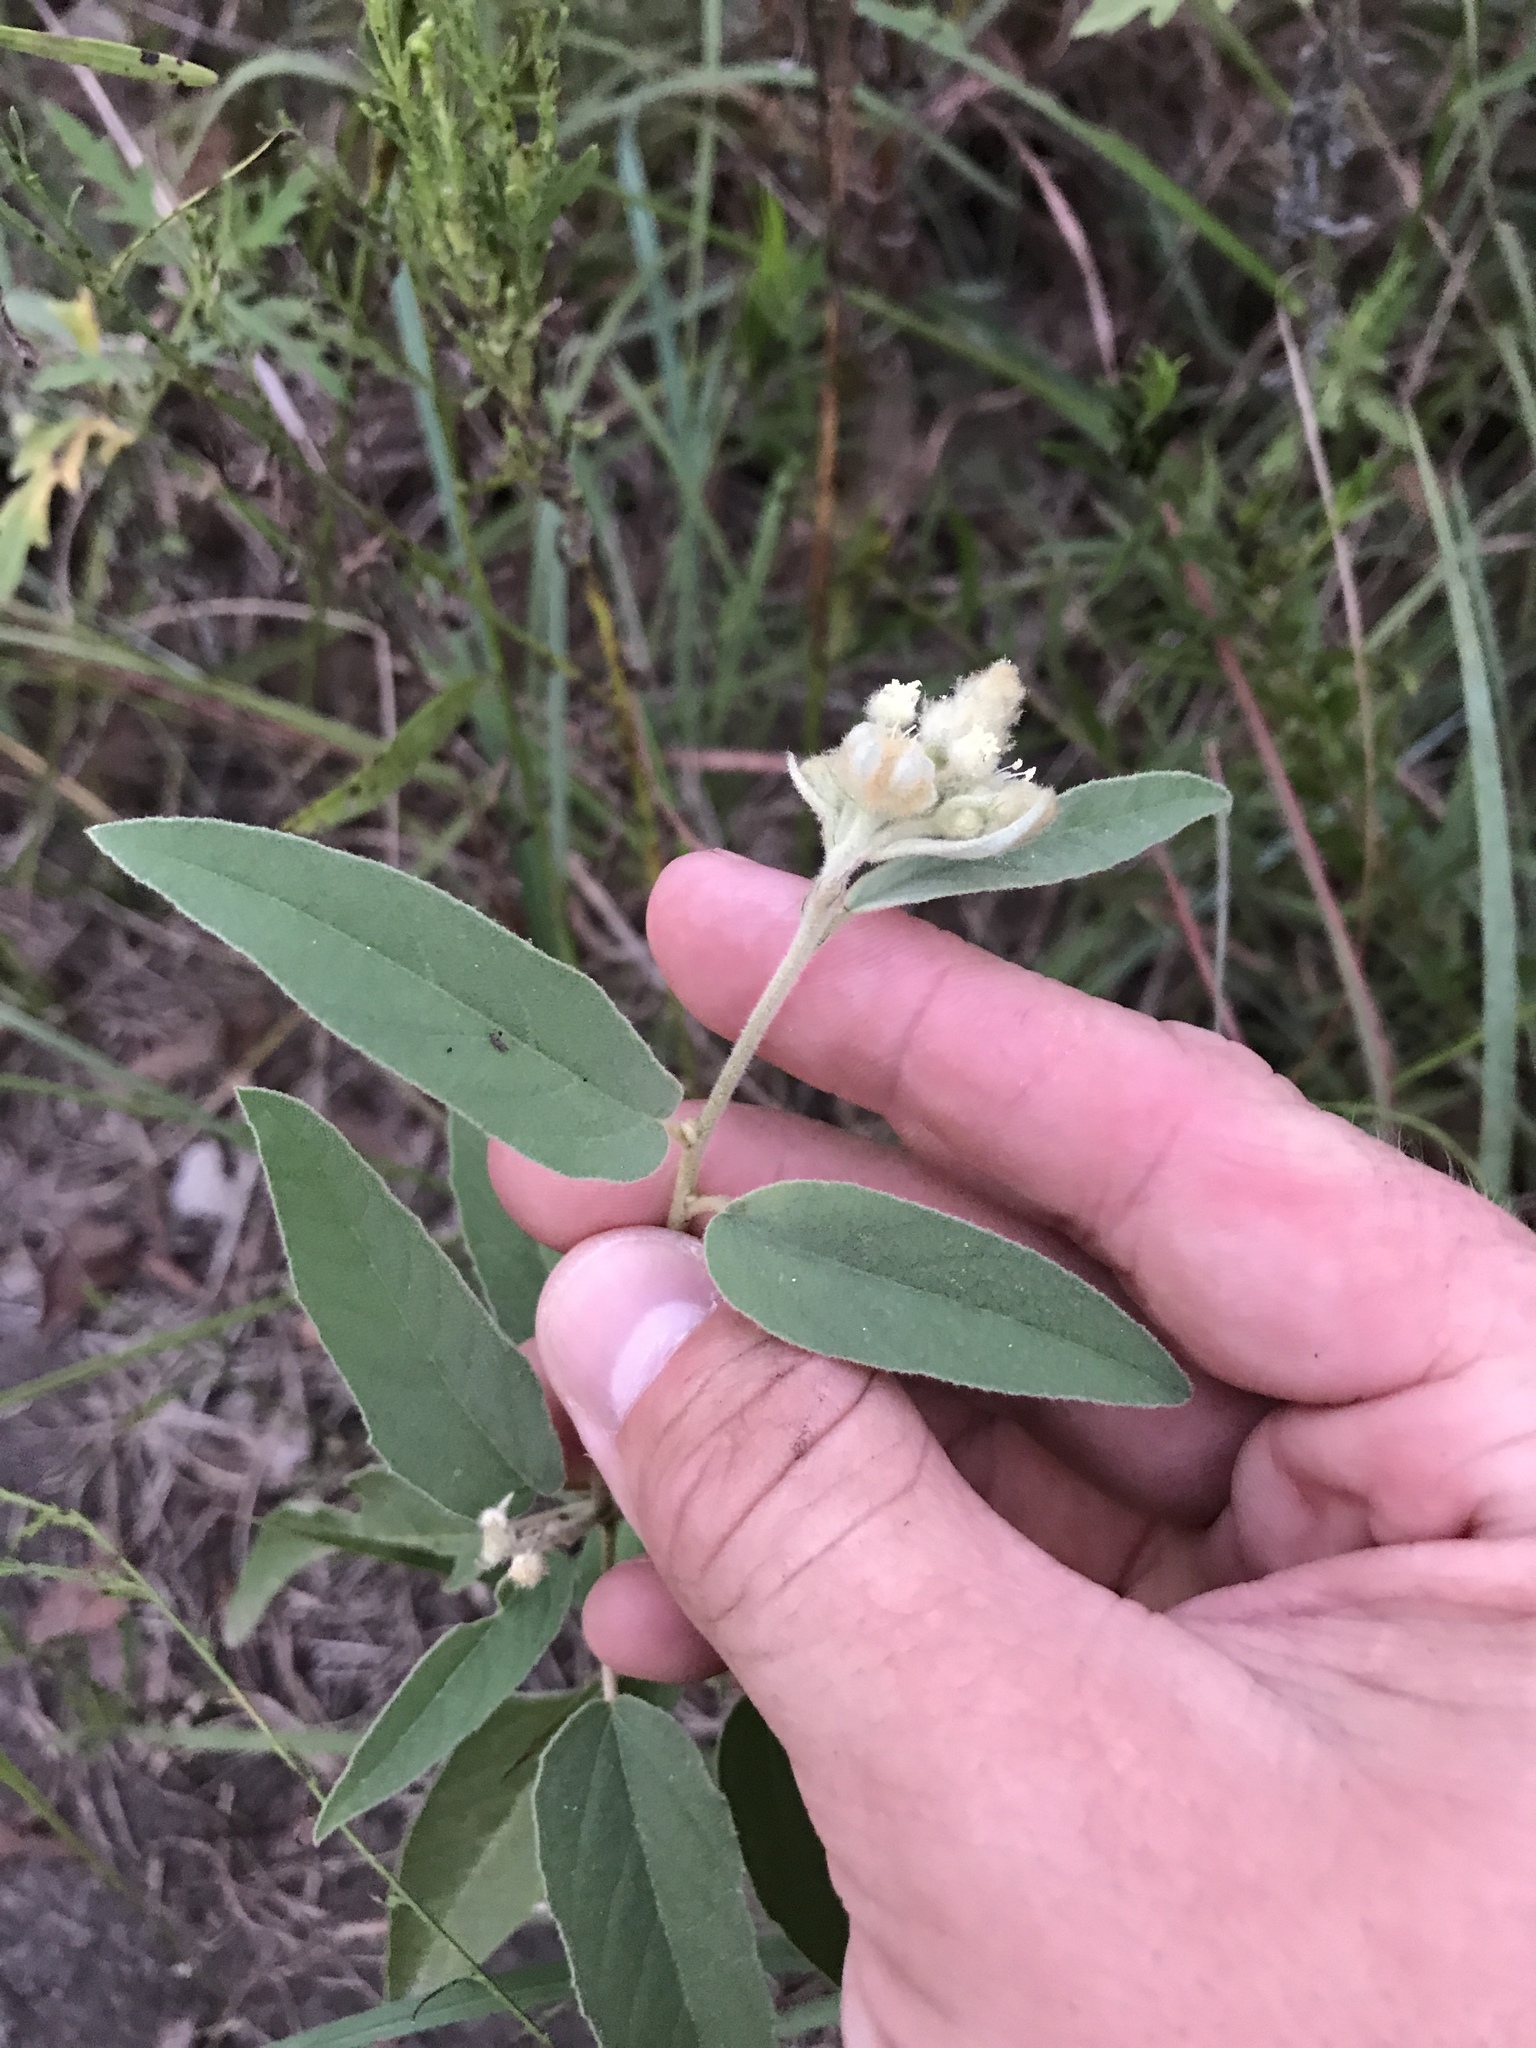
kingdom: Plantae
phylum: Tracheophyta
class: Magnoliopsida
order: Malpighiales
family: Euphorbiaceae
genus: Croton
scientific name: Croton lindheimeri
